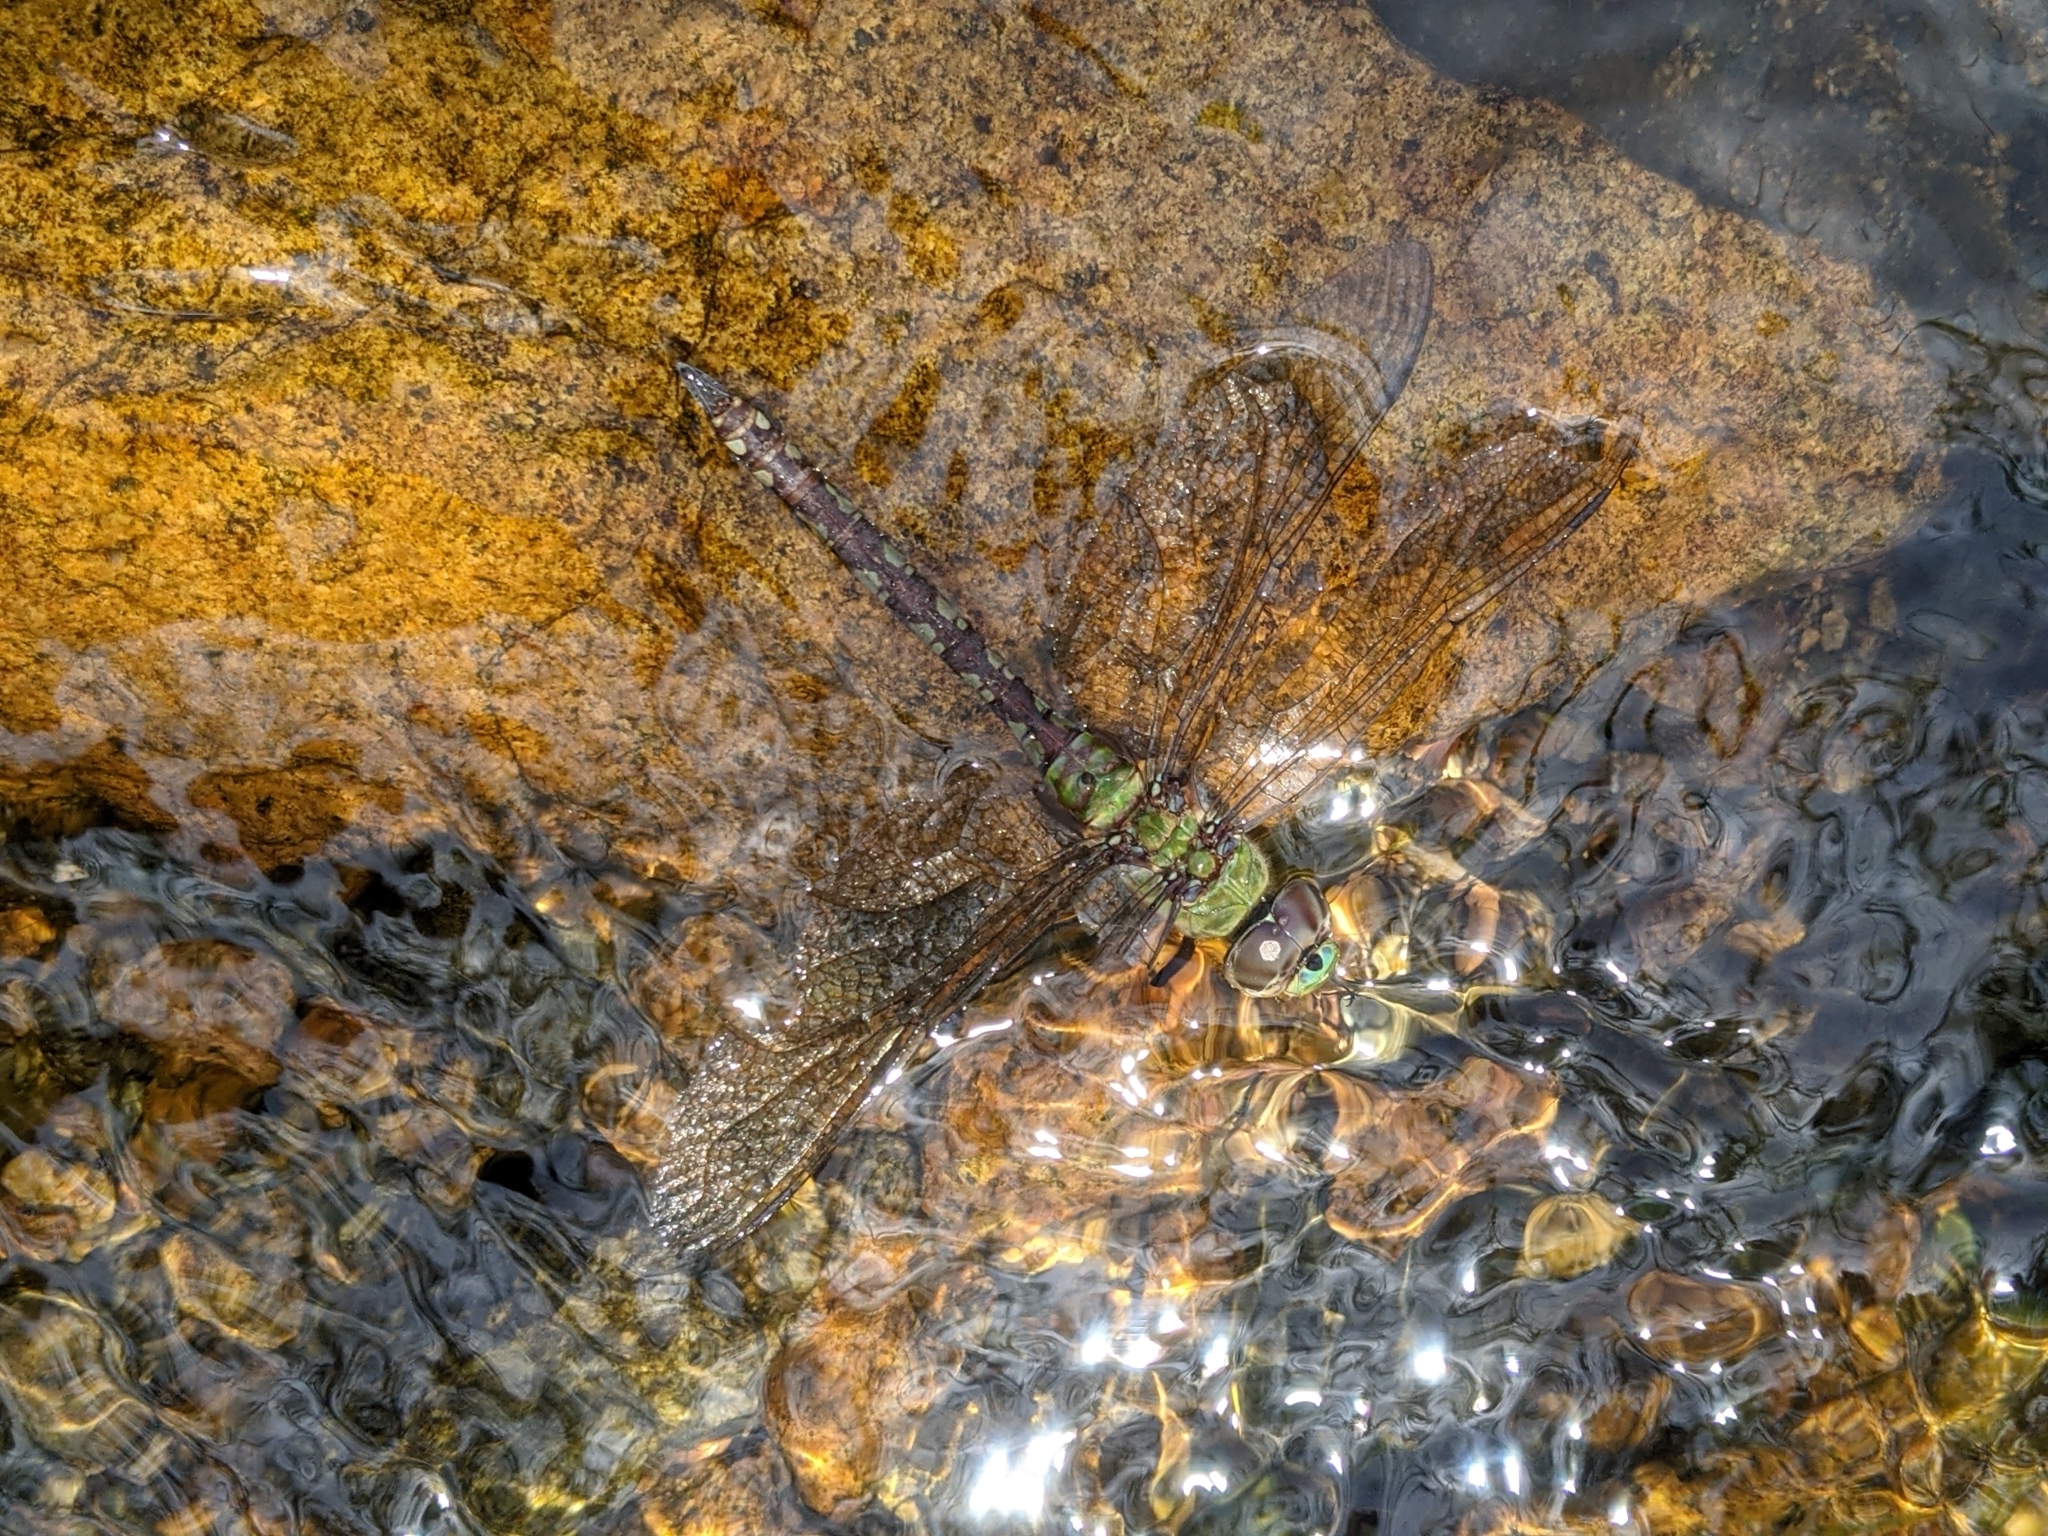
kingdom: Animalia
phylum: Arthropoda
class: Insecta
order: Odonata
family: Aeshnidae
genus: Anax
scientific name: Anax amazili
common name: Amazon darner
